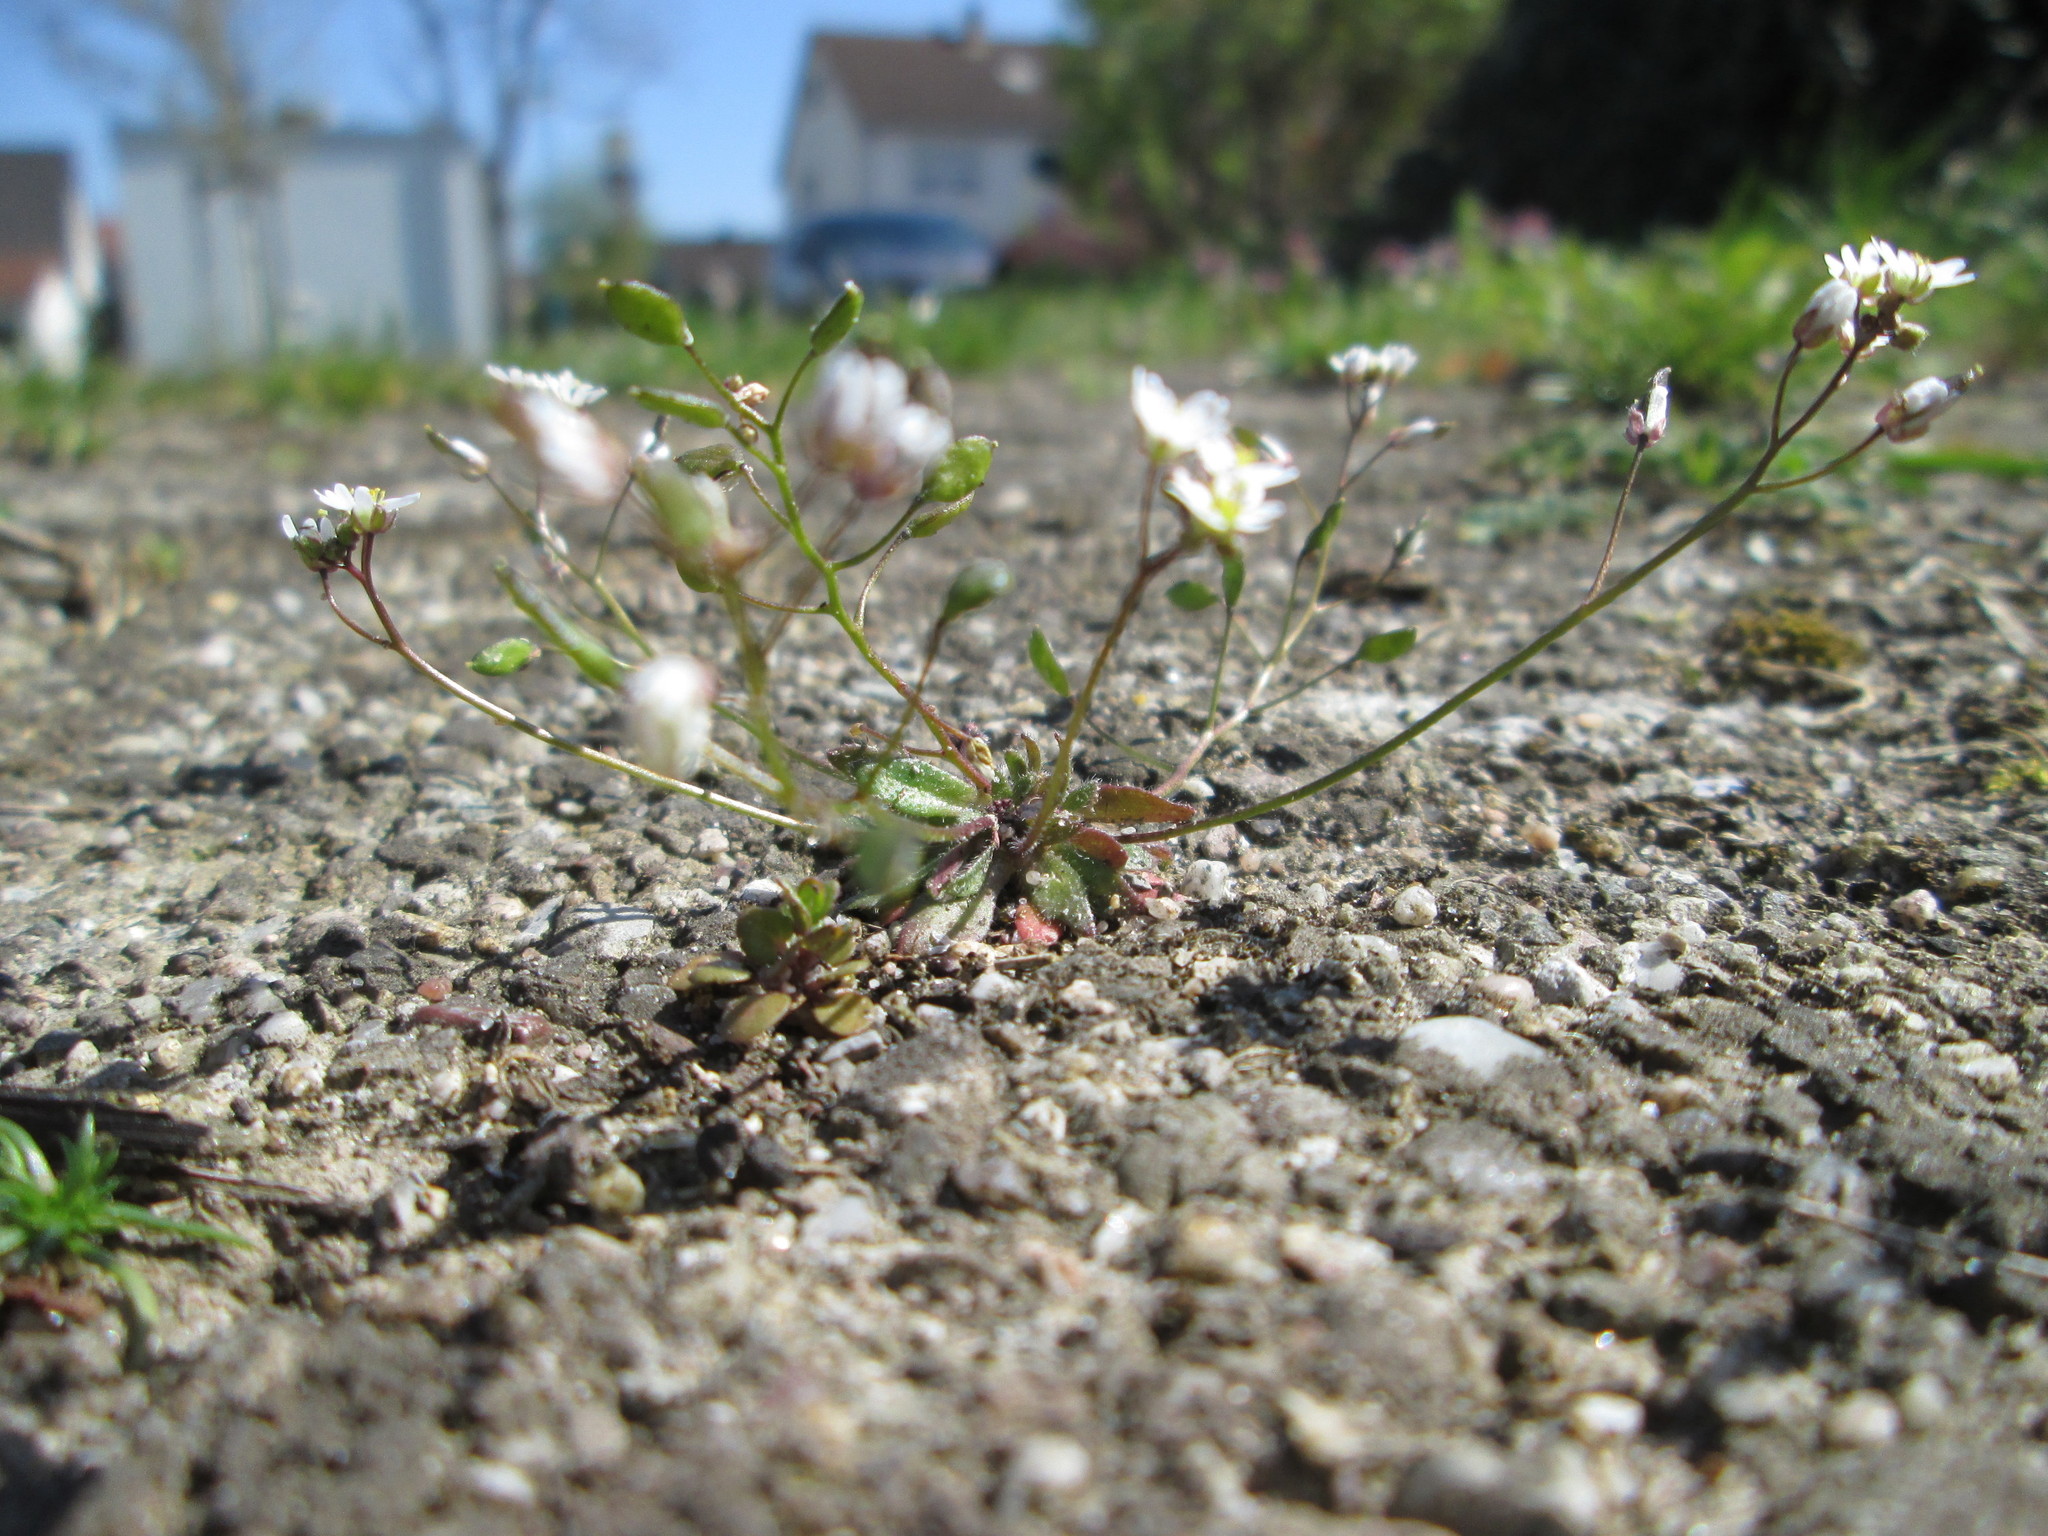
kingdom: Plantae
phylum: Tracheophyta
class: Magnoliopsida
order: Brassicales
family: Brassicaceae
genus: Draba
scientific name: Draba verna
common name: Spring draba
